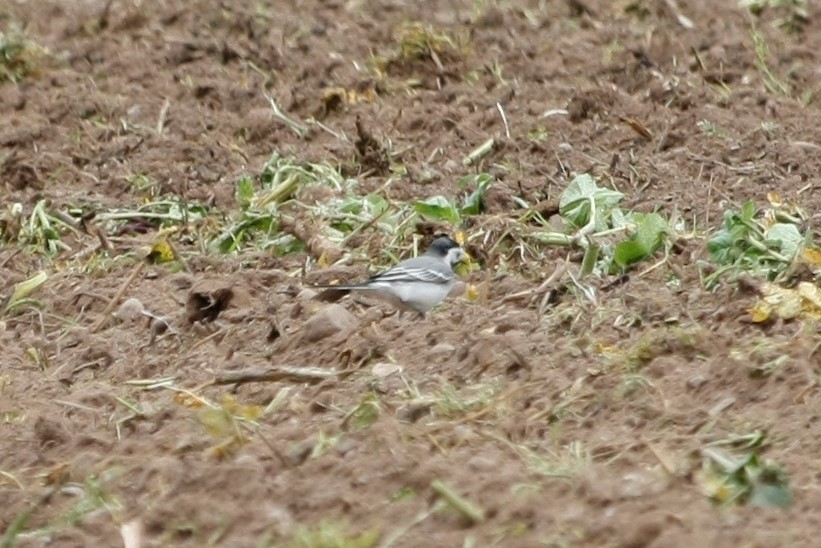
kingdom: Animalia
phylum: Chordata
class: Aves
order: Passeriformes
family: Motacillidae
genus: Motacilla
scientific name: Motacilla alba
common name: White wagtail
